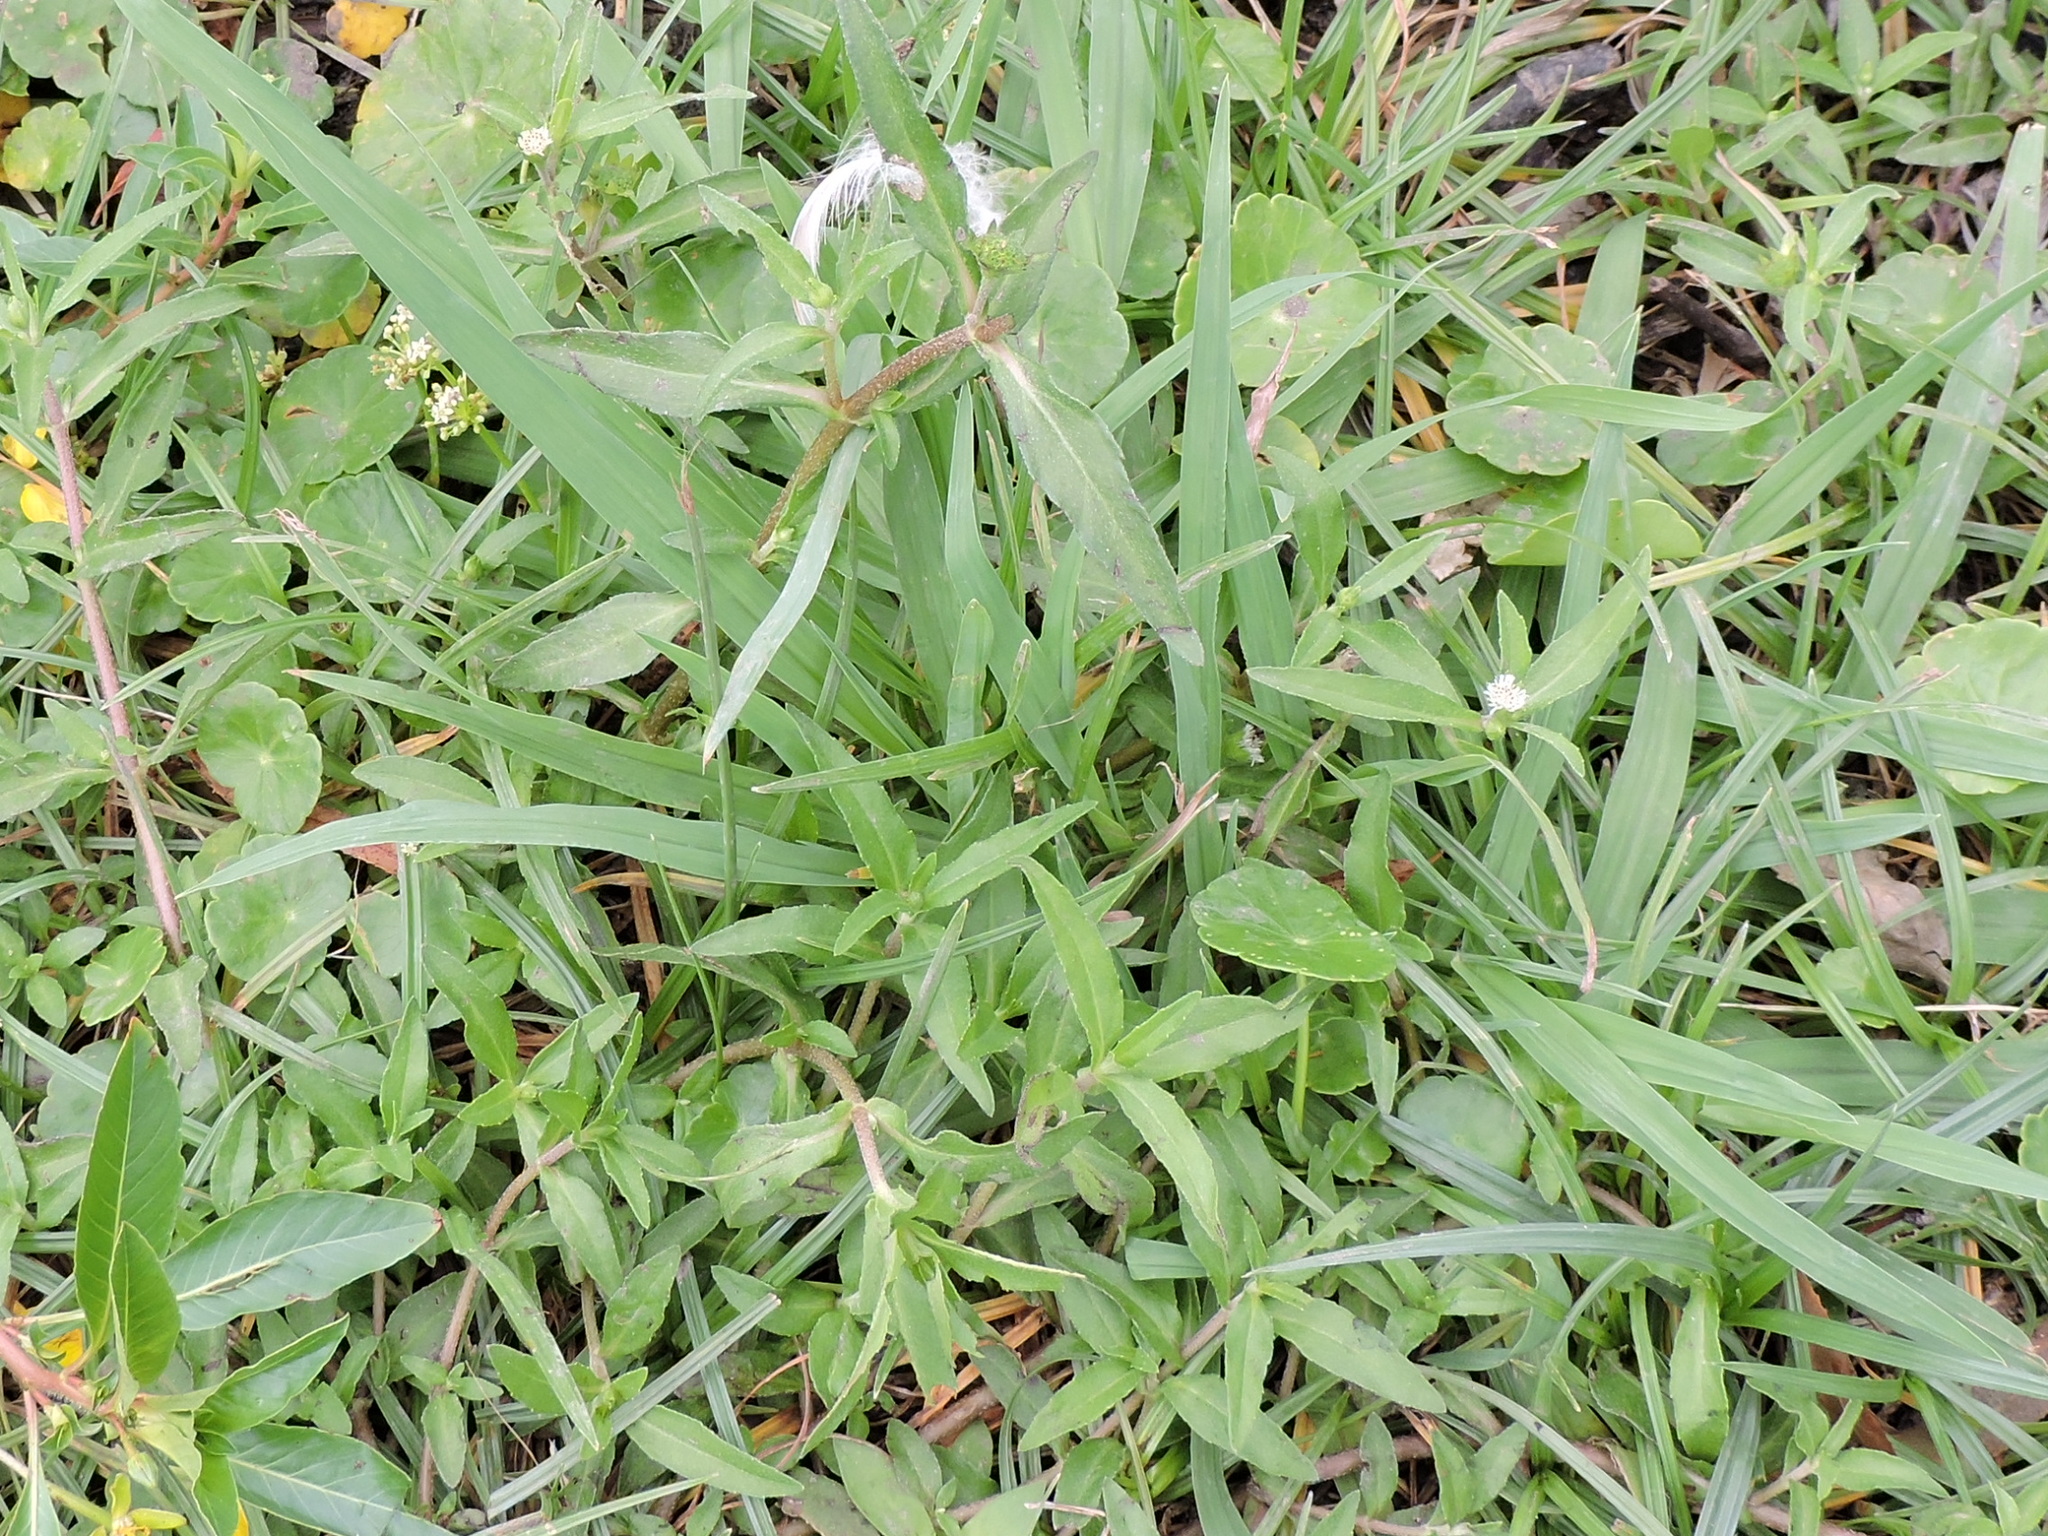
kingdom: Plantae
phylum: Tracheophyta
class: Magnoliopsida
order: Asterales
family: Asteraceae
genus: Eclipta
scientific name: Eclipta prostrata
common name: False daisy
